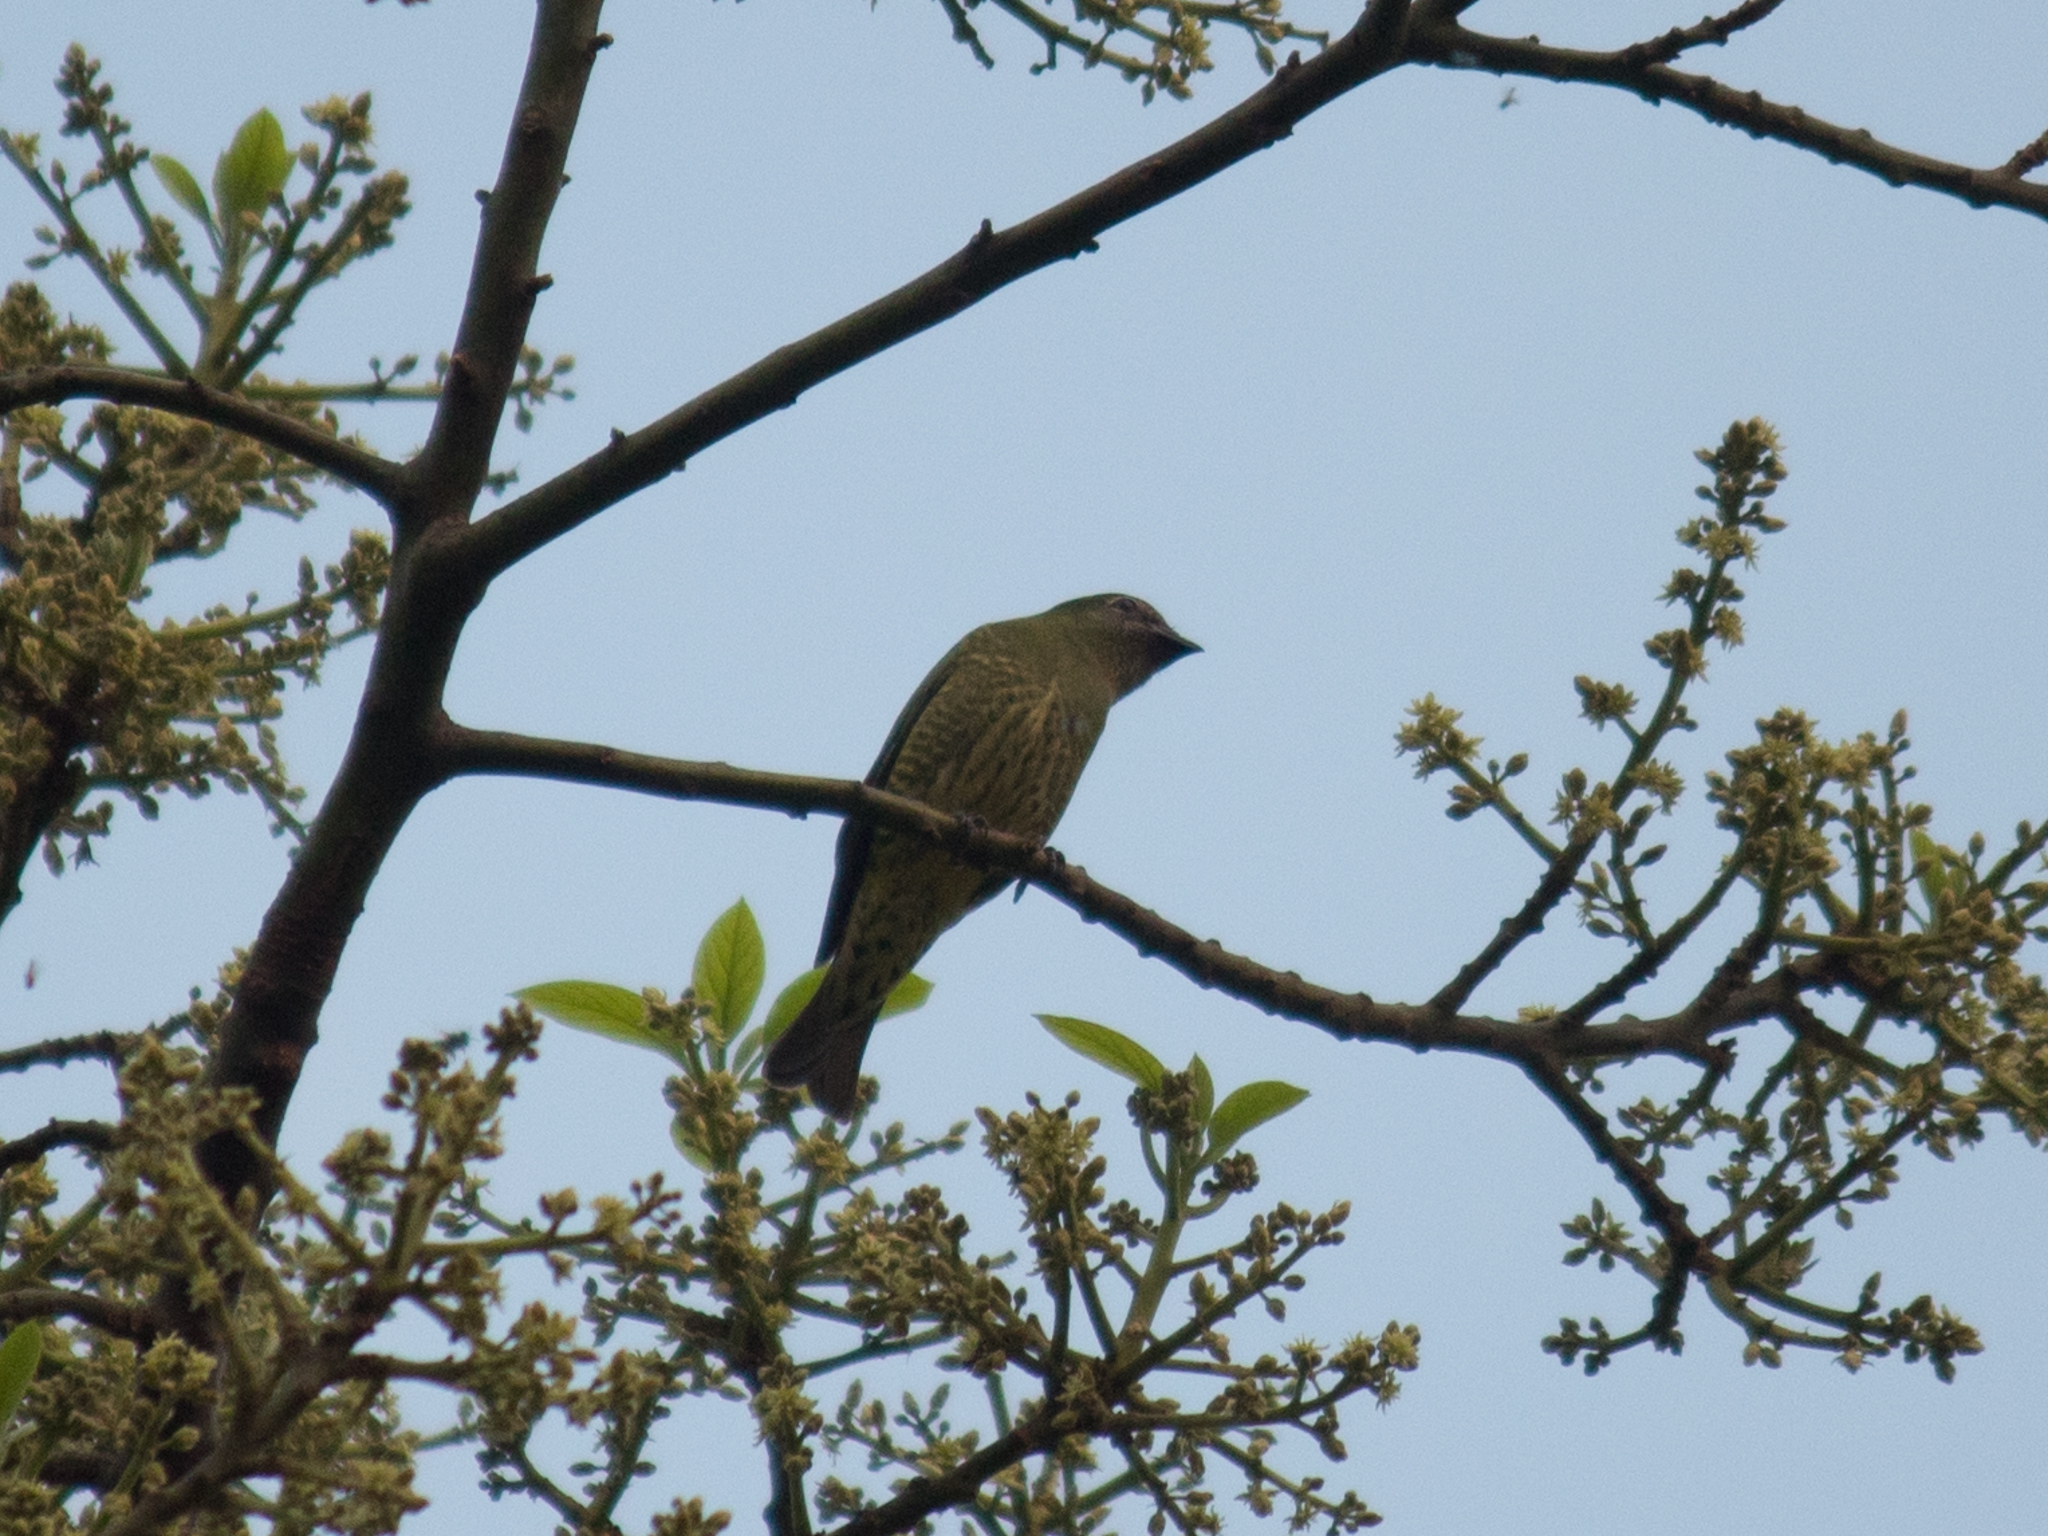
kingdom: Animalia
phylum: Chordata
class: Aves
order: Passeriformes
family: Thraupidae
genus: Tersina
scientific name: Tersina viridis
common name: Swallow tanager
